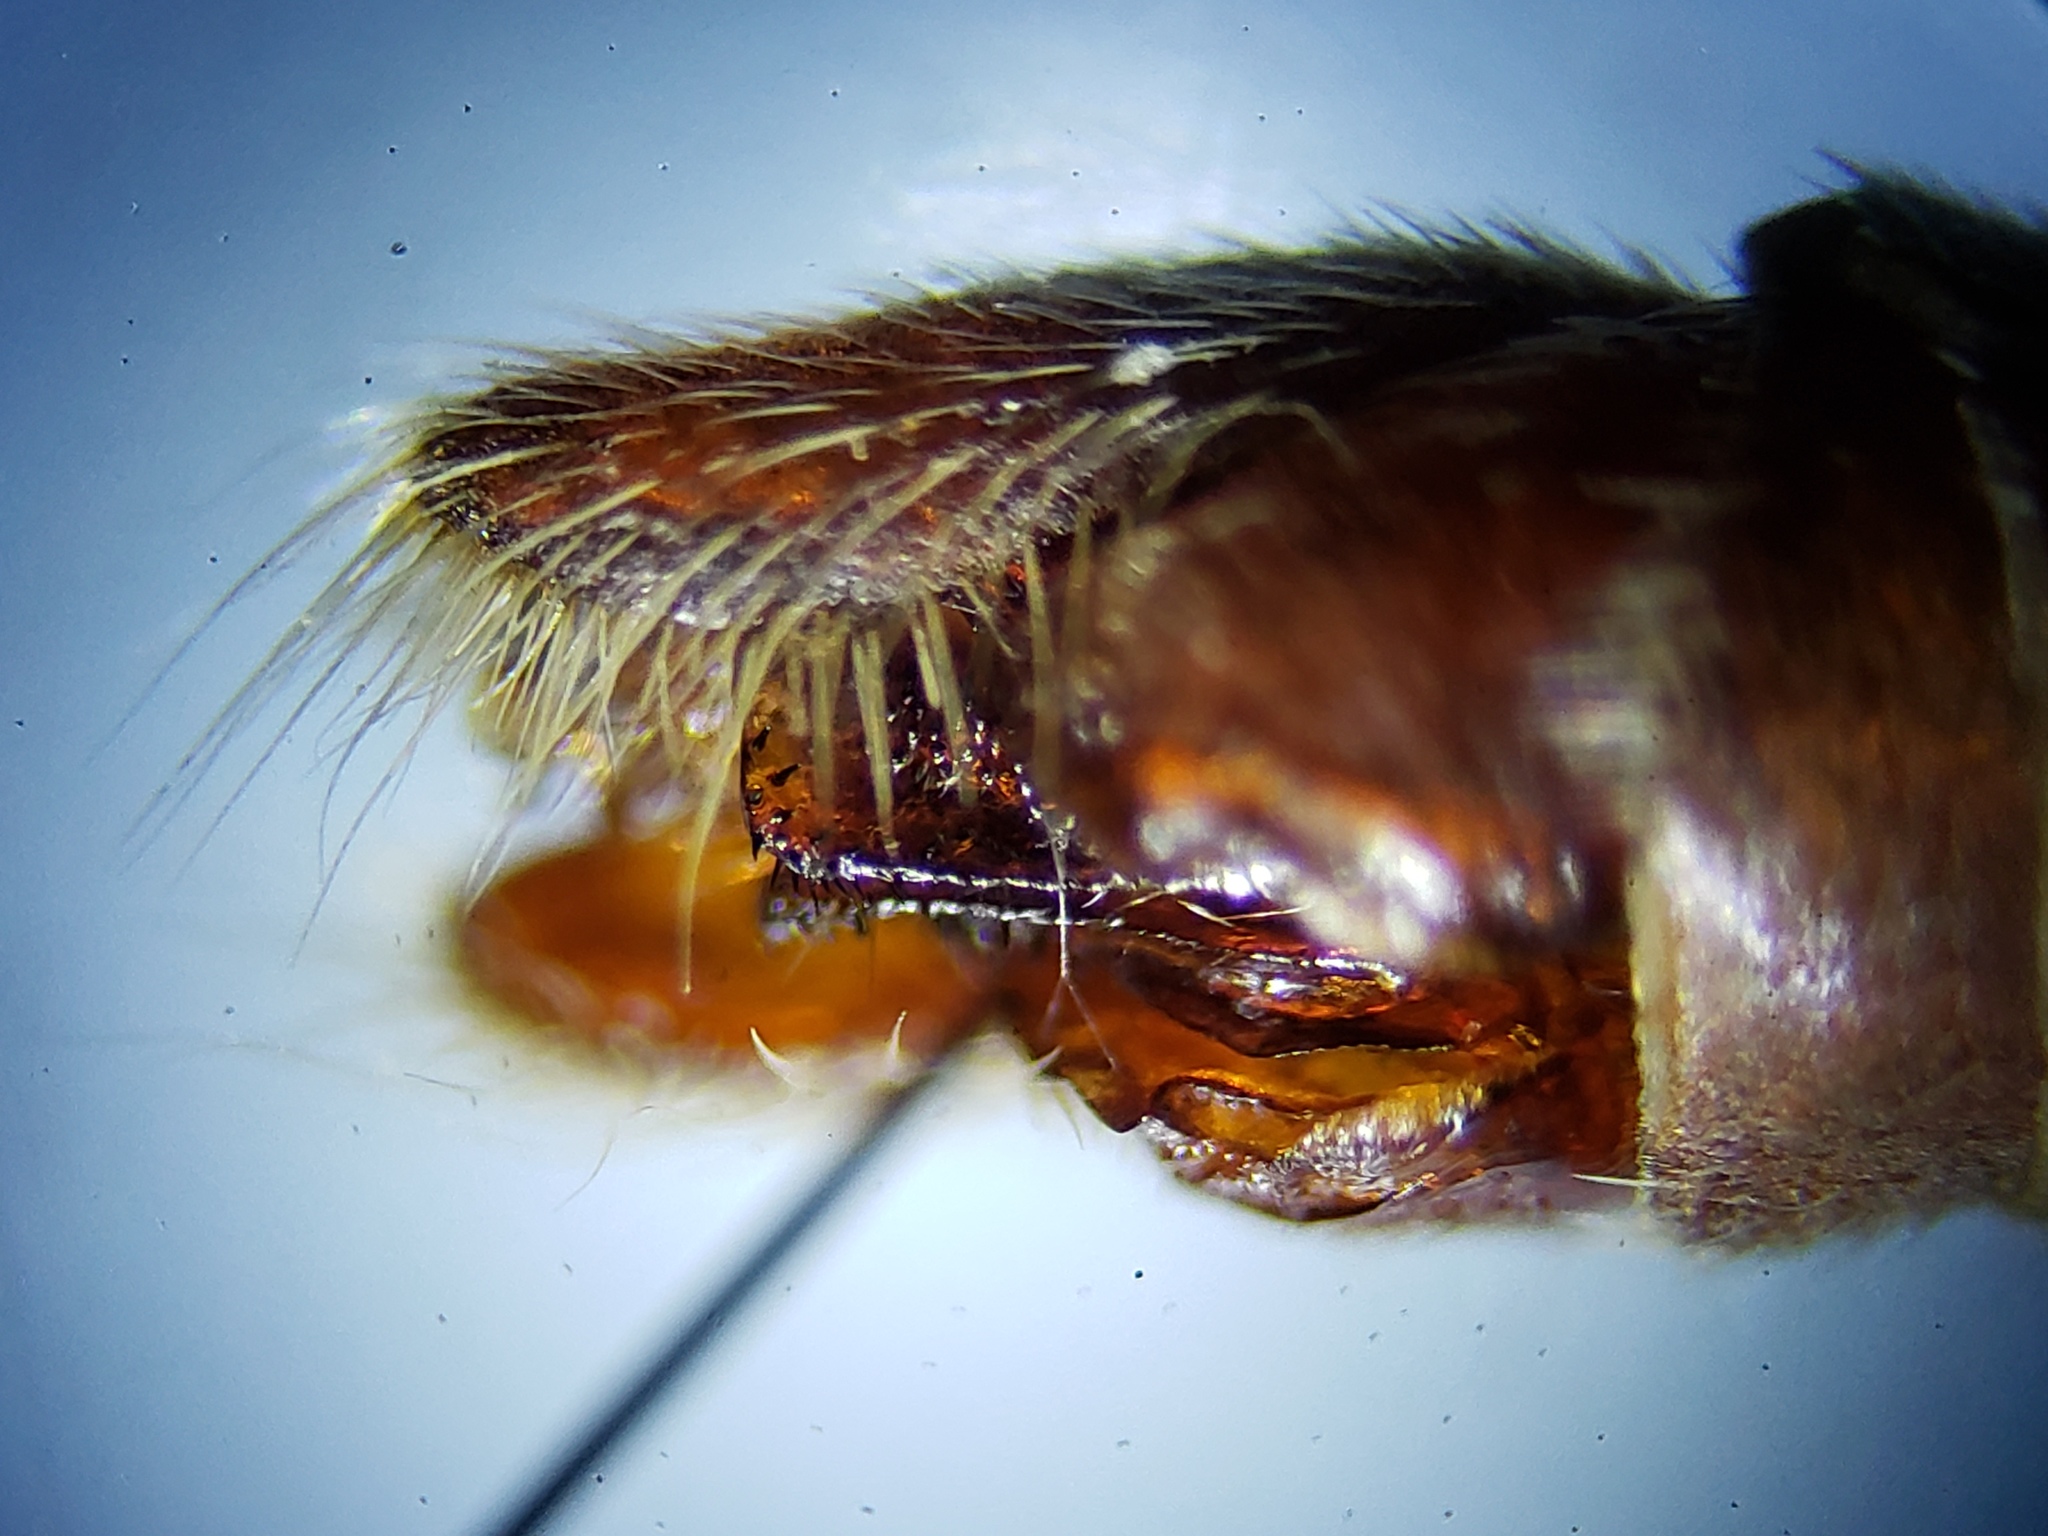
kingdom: Animalia
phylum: Arthropoda
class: Insecta
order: Diptera
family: Asilidae
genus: Proctacanthus
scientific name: Proctacanthus gracilis
